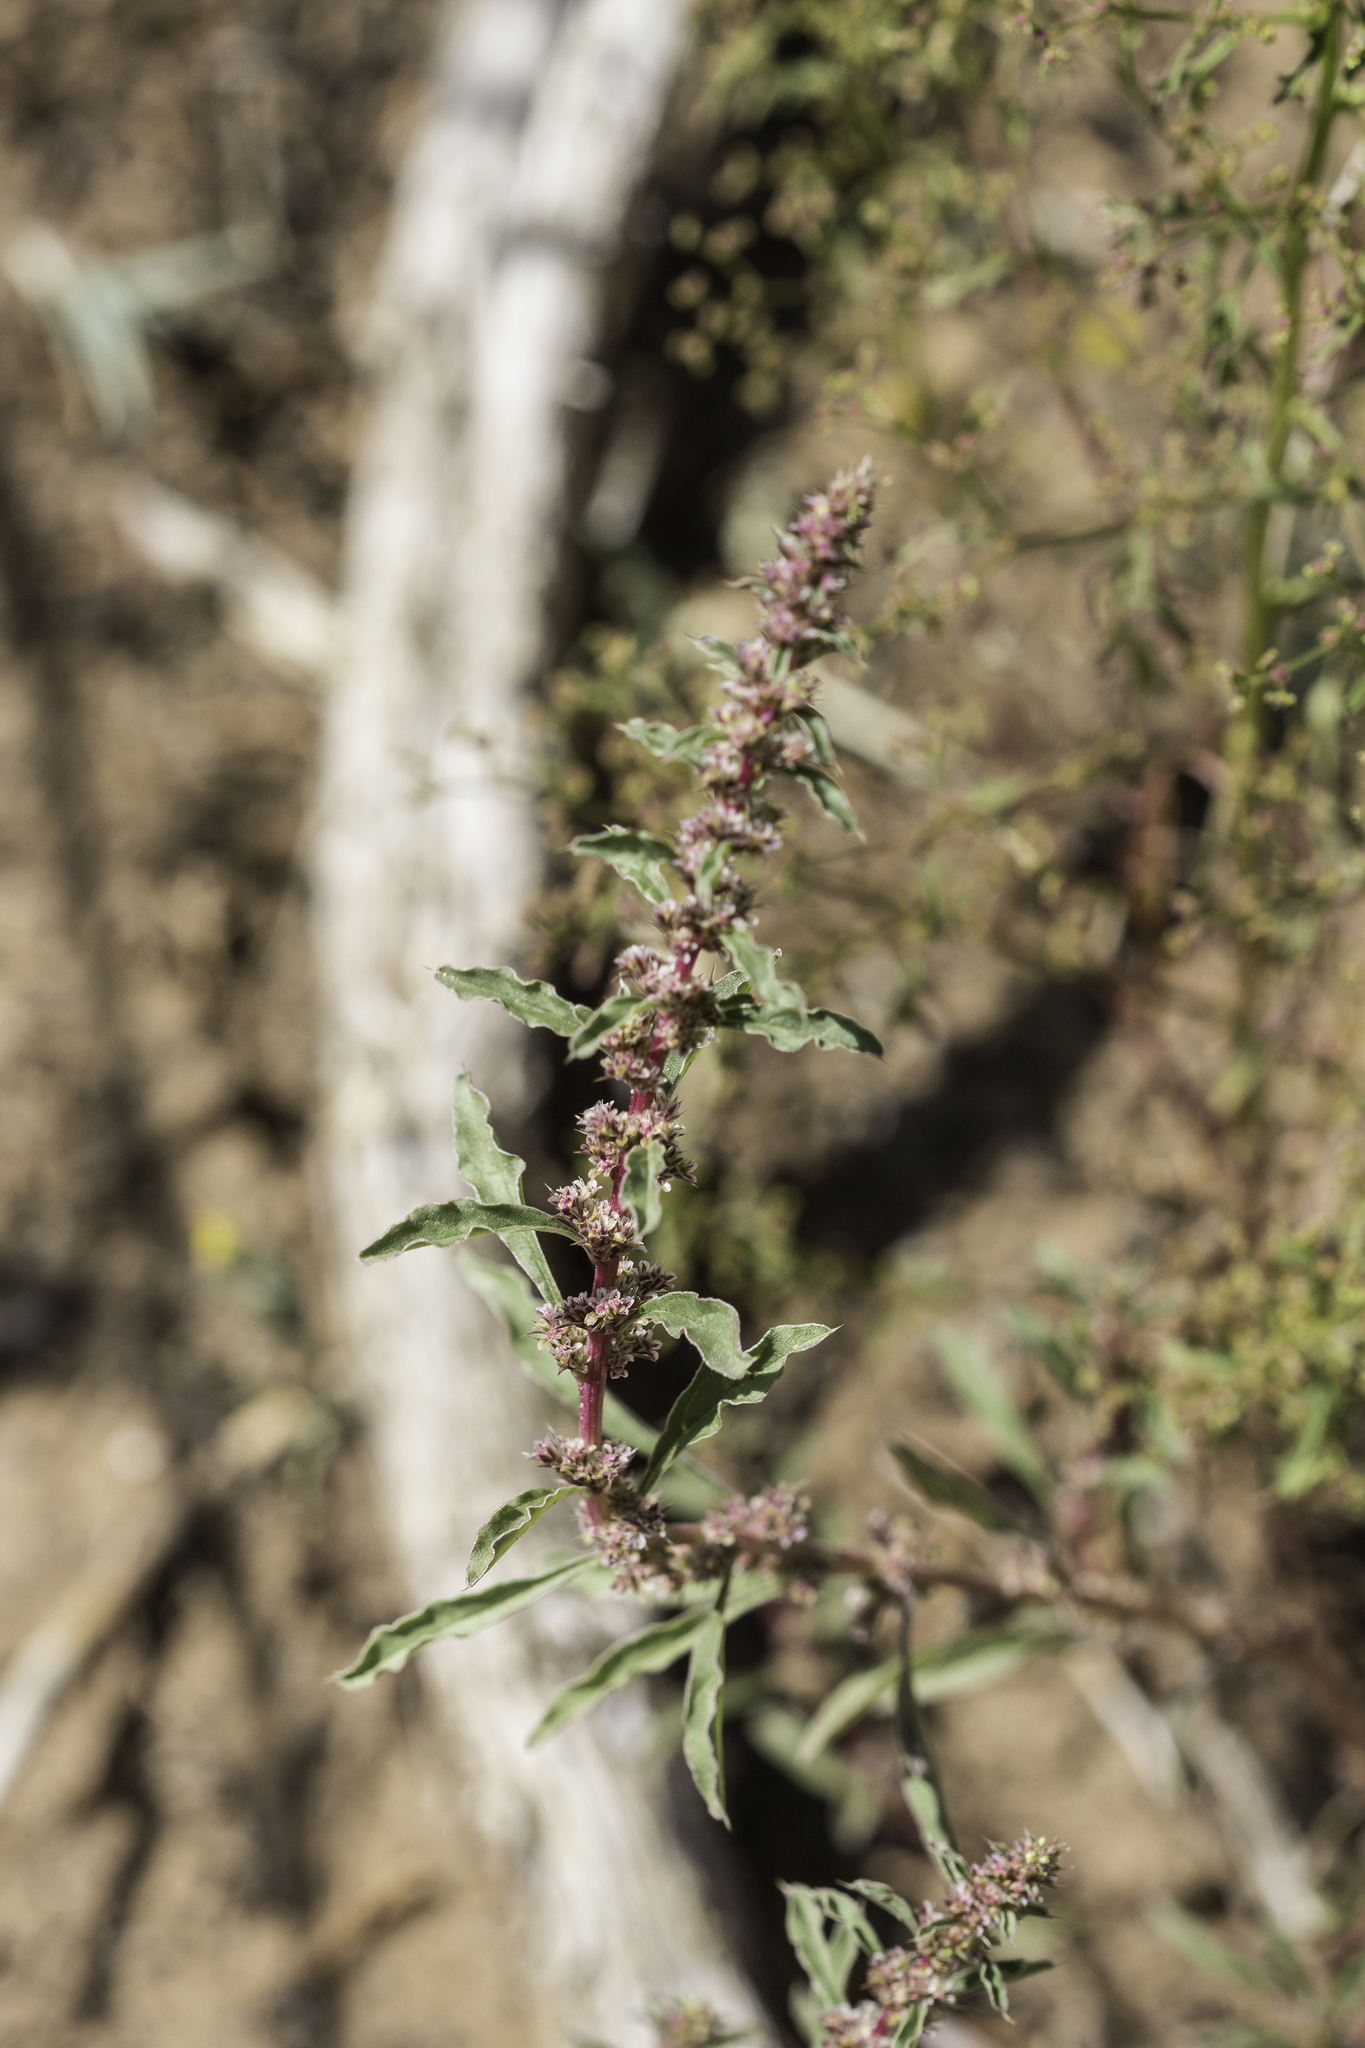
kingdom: Plantae
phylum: Tracheophyta
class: Magnoliopsida
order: Caryophyllales
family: Amaranthaceae
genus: Amaranthus
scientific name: Amaranthus torreyi
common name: Bigelow's amaranth
